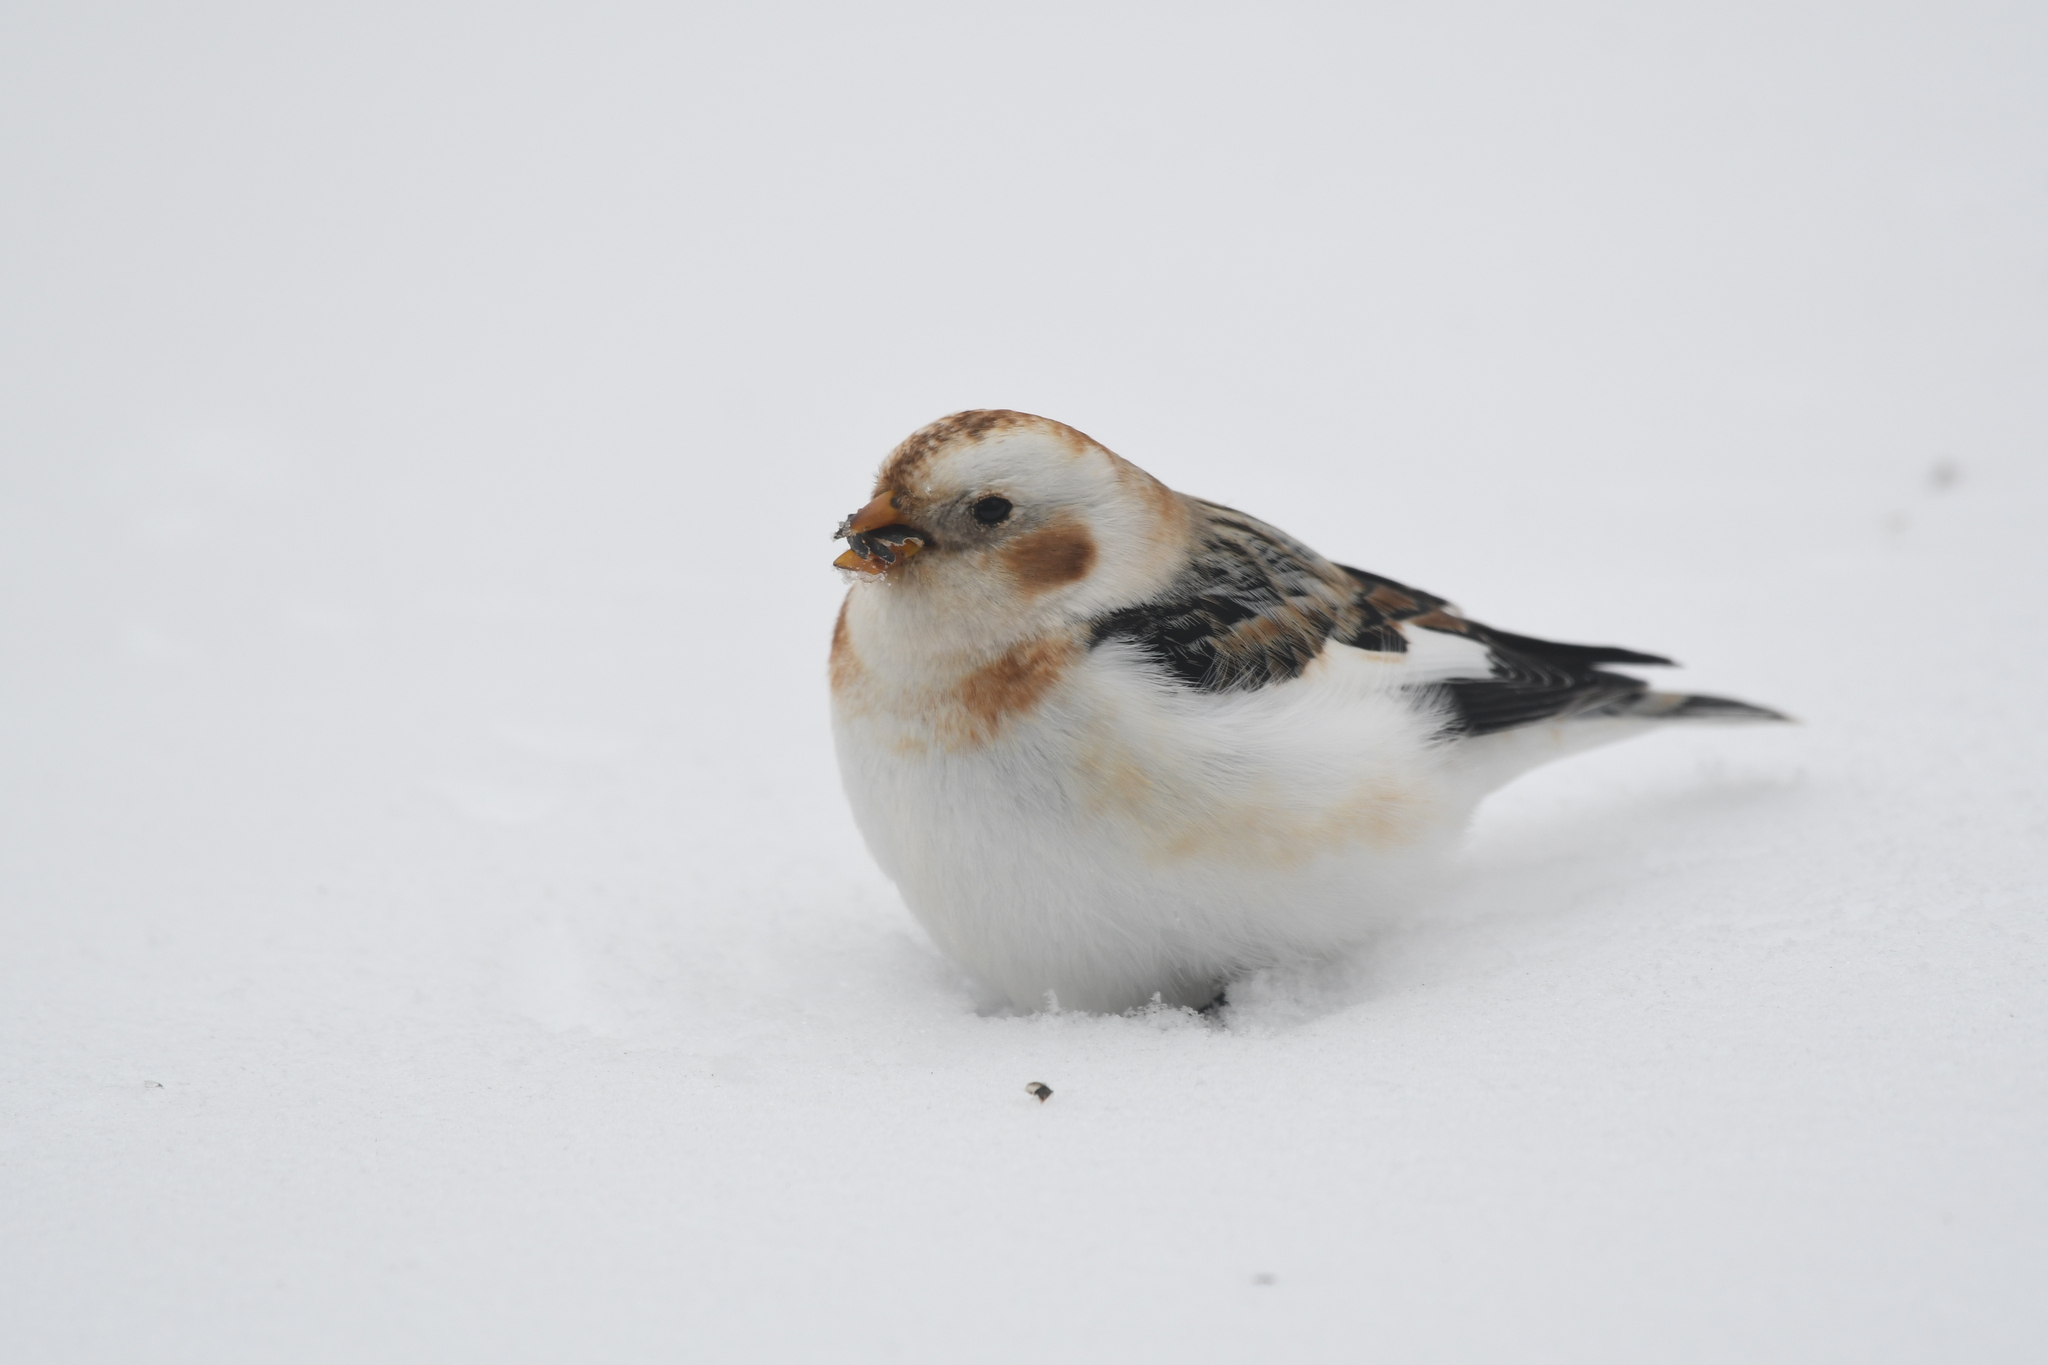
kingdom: Animalia
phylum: Chordata
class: Aves
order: Passeriformes
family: Calcariidae
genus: Plectrophenax
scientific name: Plectrophenax nivalis
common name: Snow bunting
